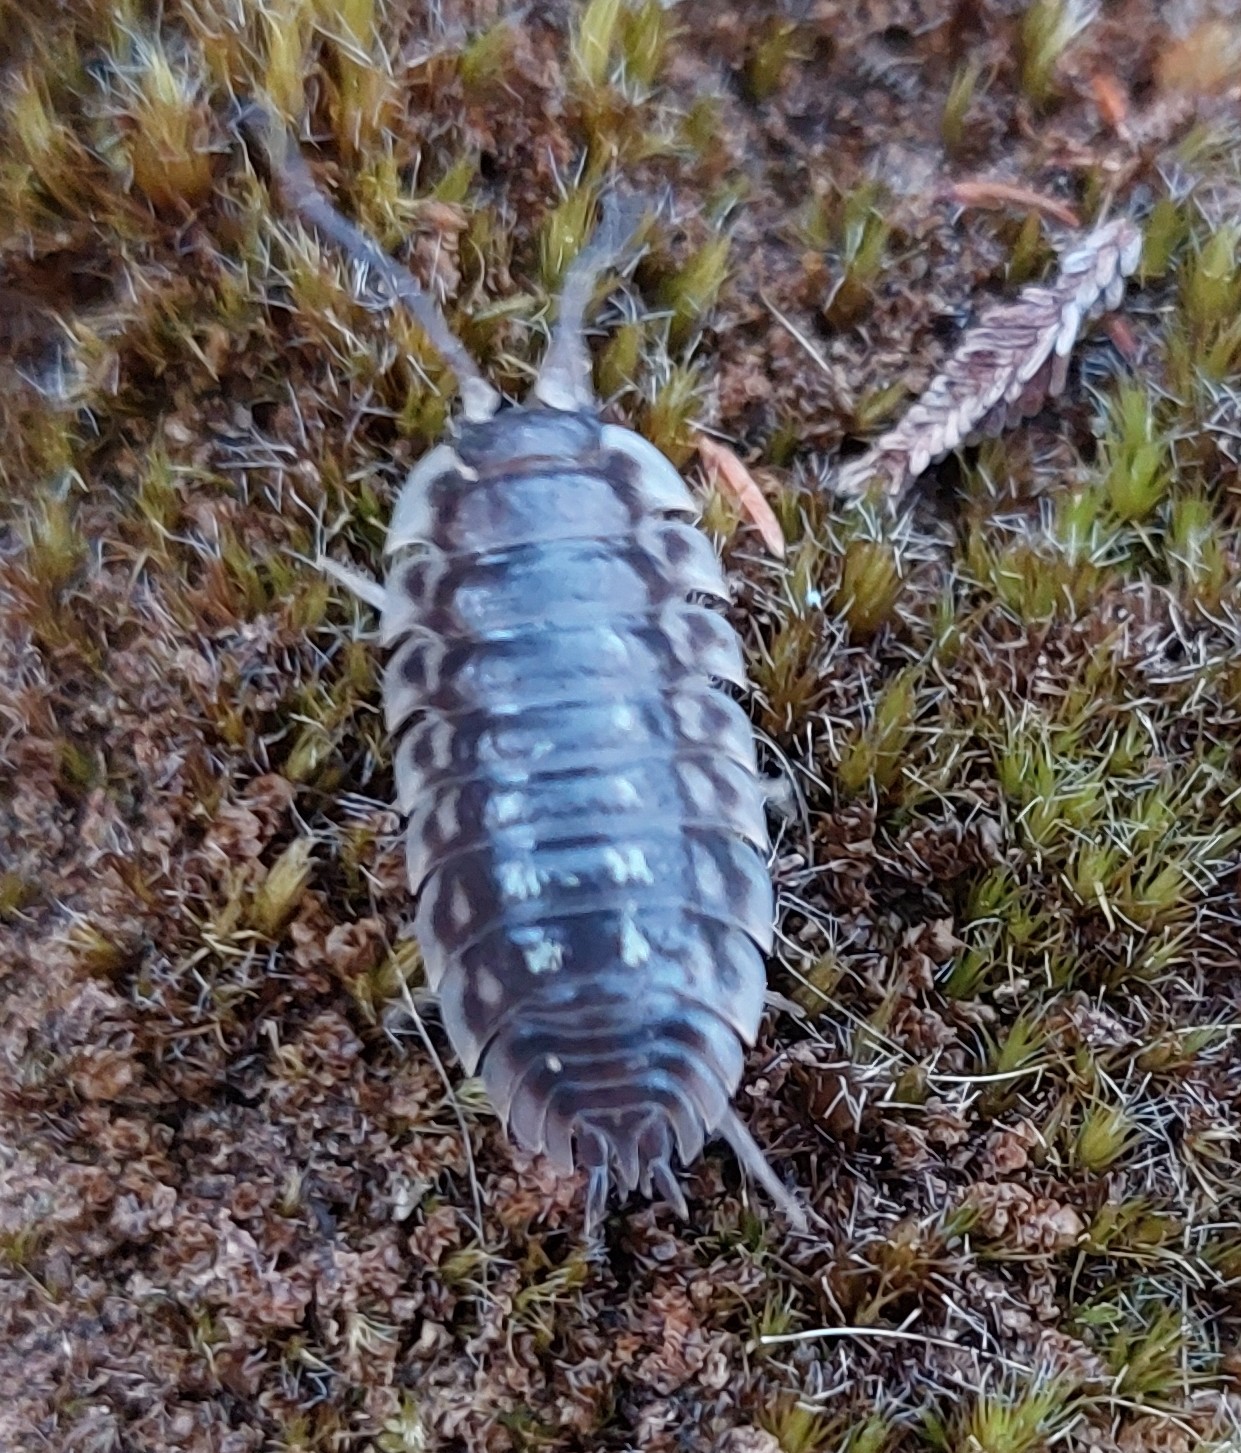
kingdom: Animalia
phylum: Arthropoda
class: Malacostraca
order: Isopoda
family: Oniscidae
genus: Oniscus
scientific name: Oniscus asellus
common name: Common shiny woodlouse
